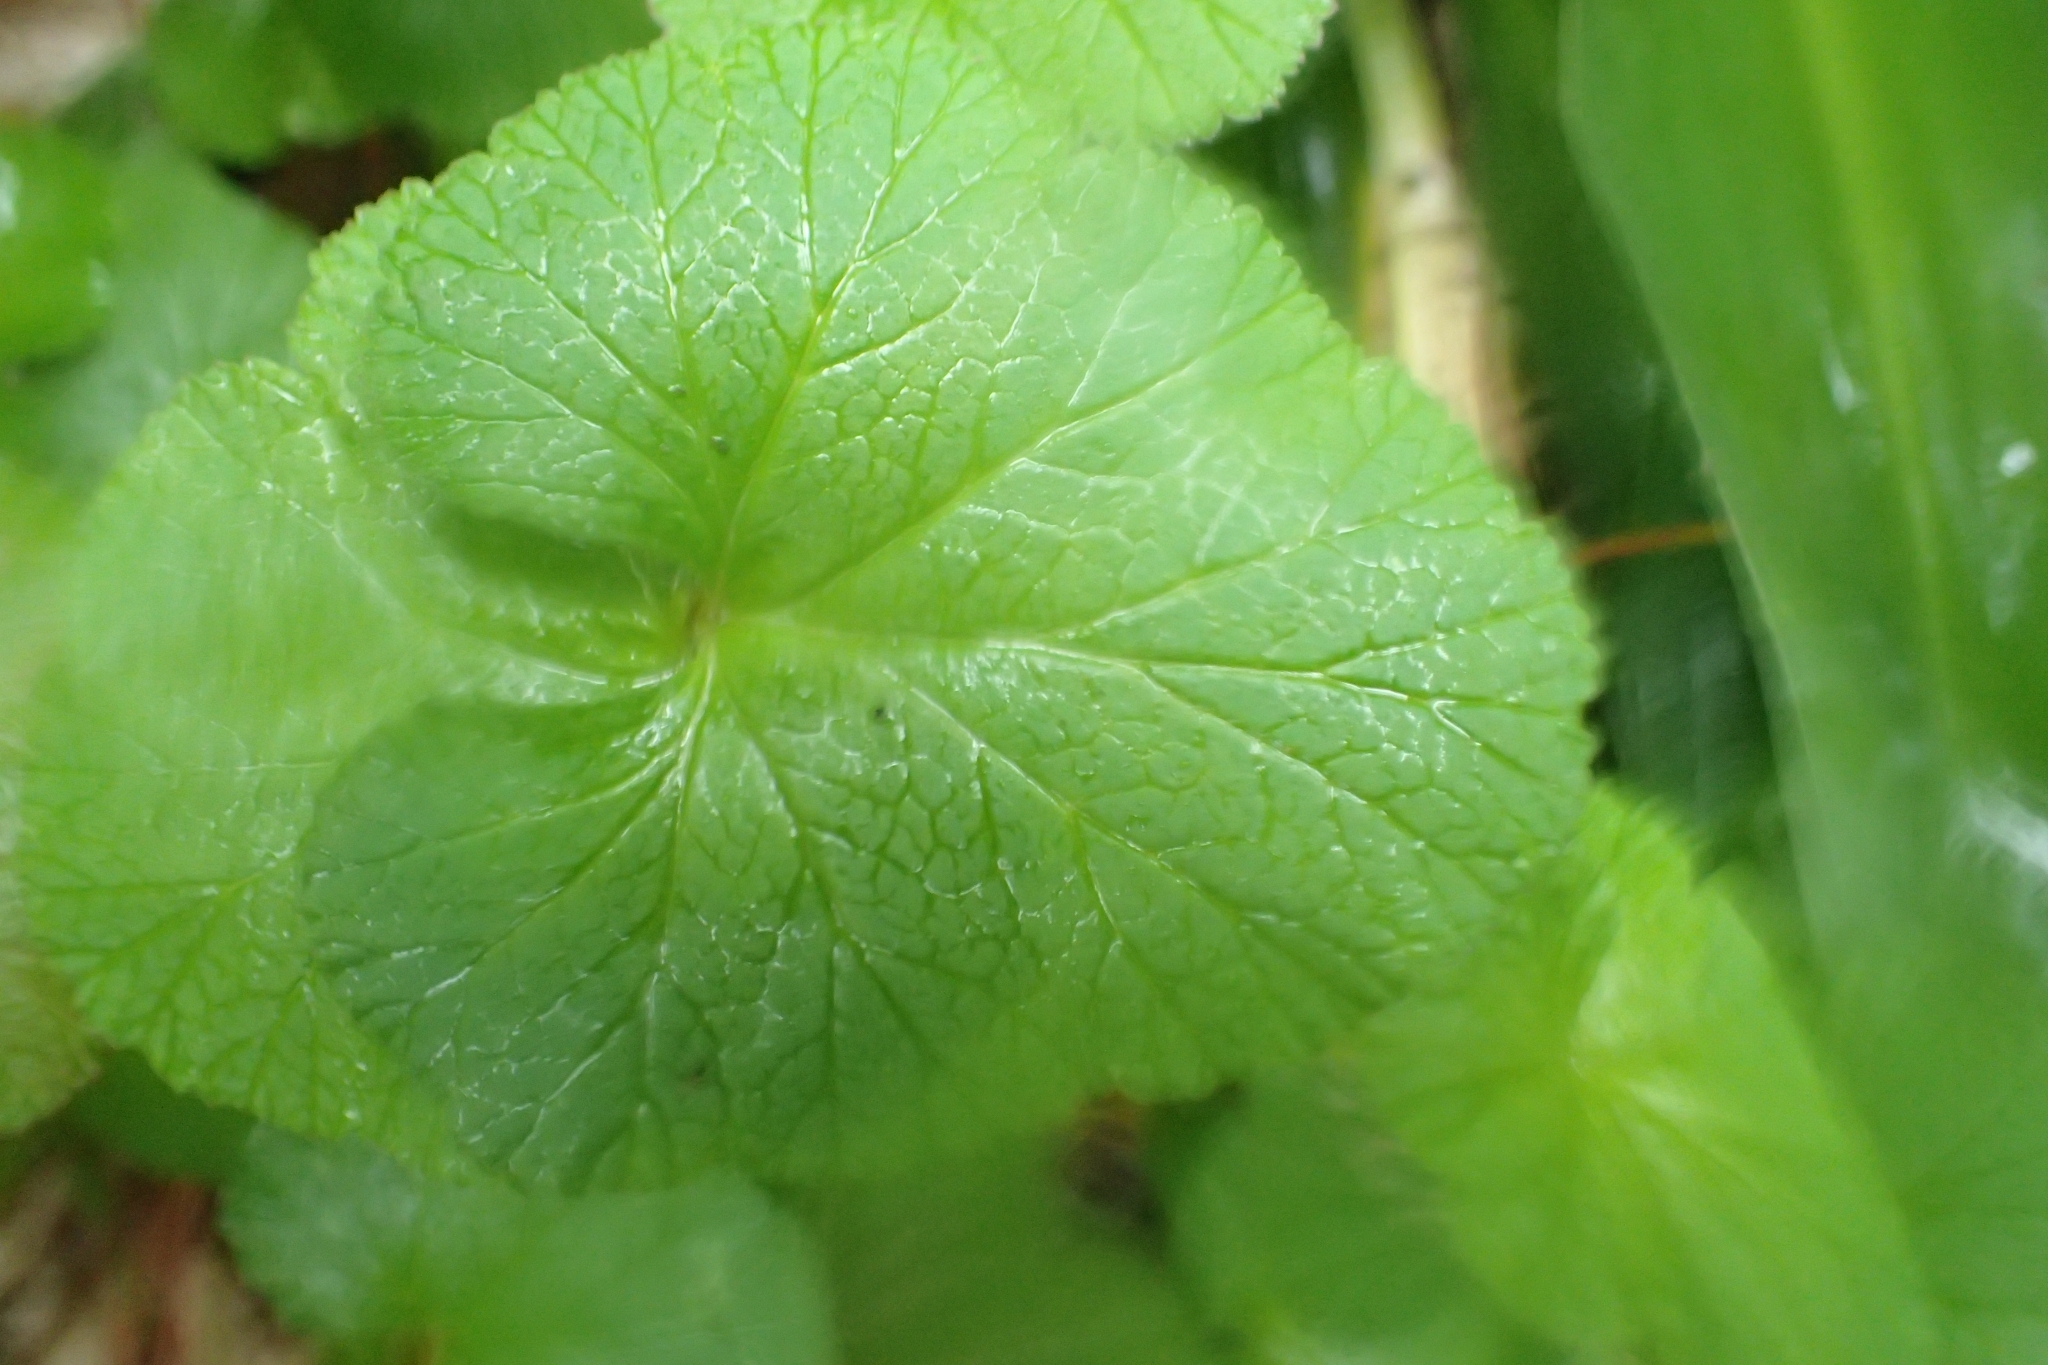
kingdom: Plantae
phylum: Tracheophyta
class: Magnoliopsida
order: Geraniales
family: Geraniaceae
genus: Pelargonium
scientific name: Pelargonium inodorum
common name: Kopata geranium
